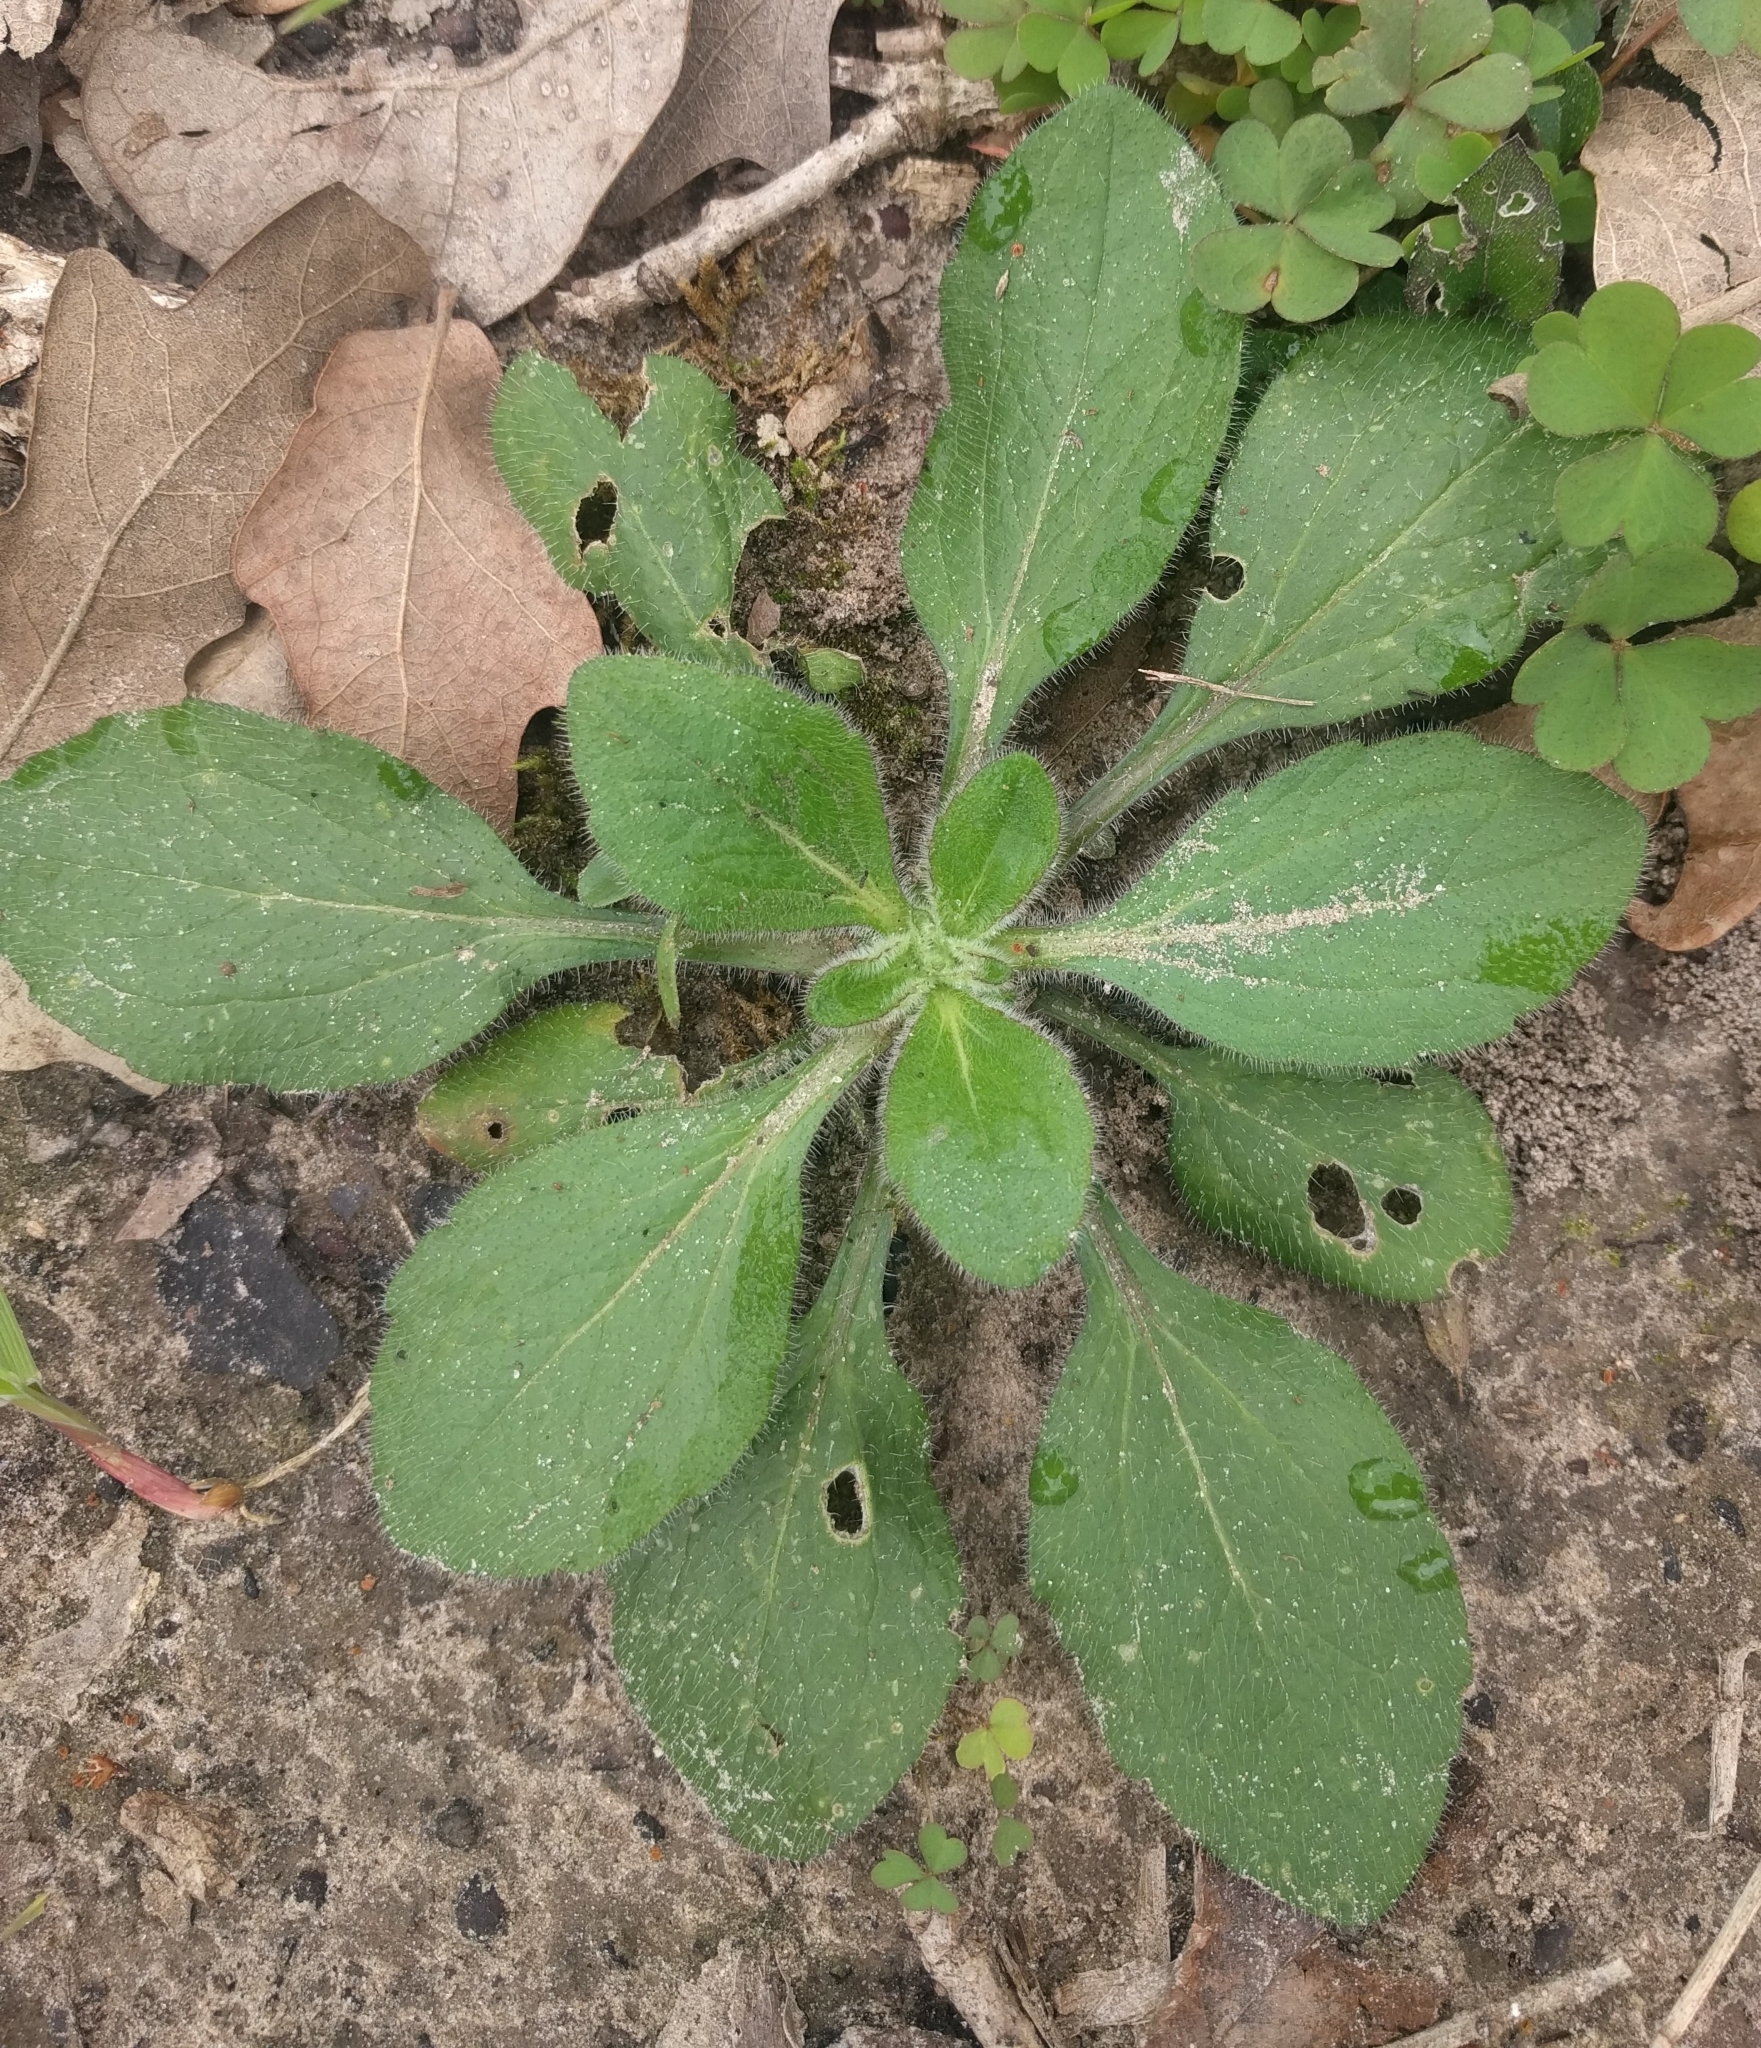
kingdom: Plantae
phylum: Tracheophyta
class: Magnoliopsida
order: Lamiales
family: Plantaginaceae
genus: Plantago
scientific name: Plantago rhodosperma
